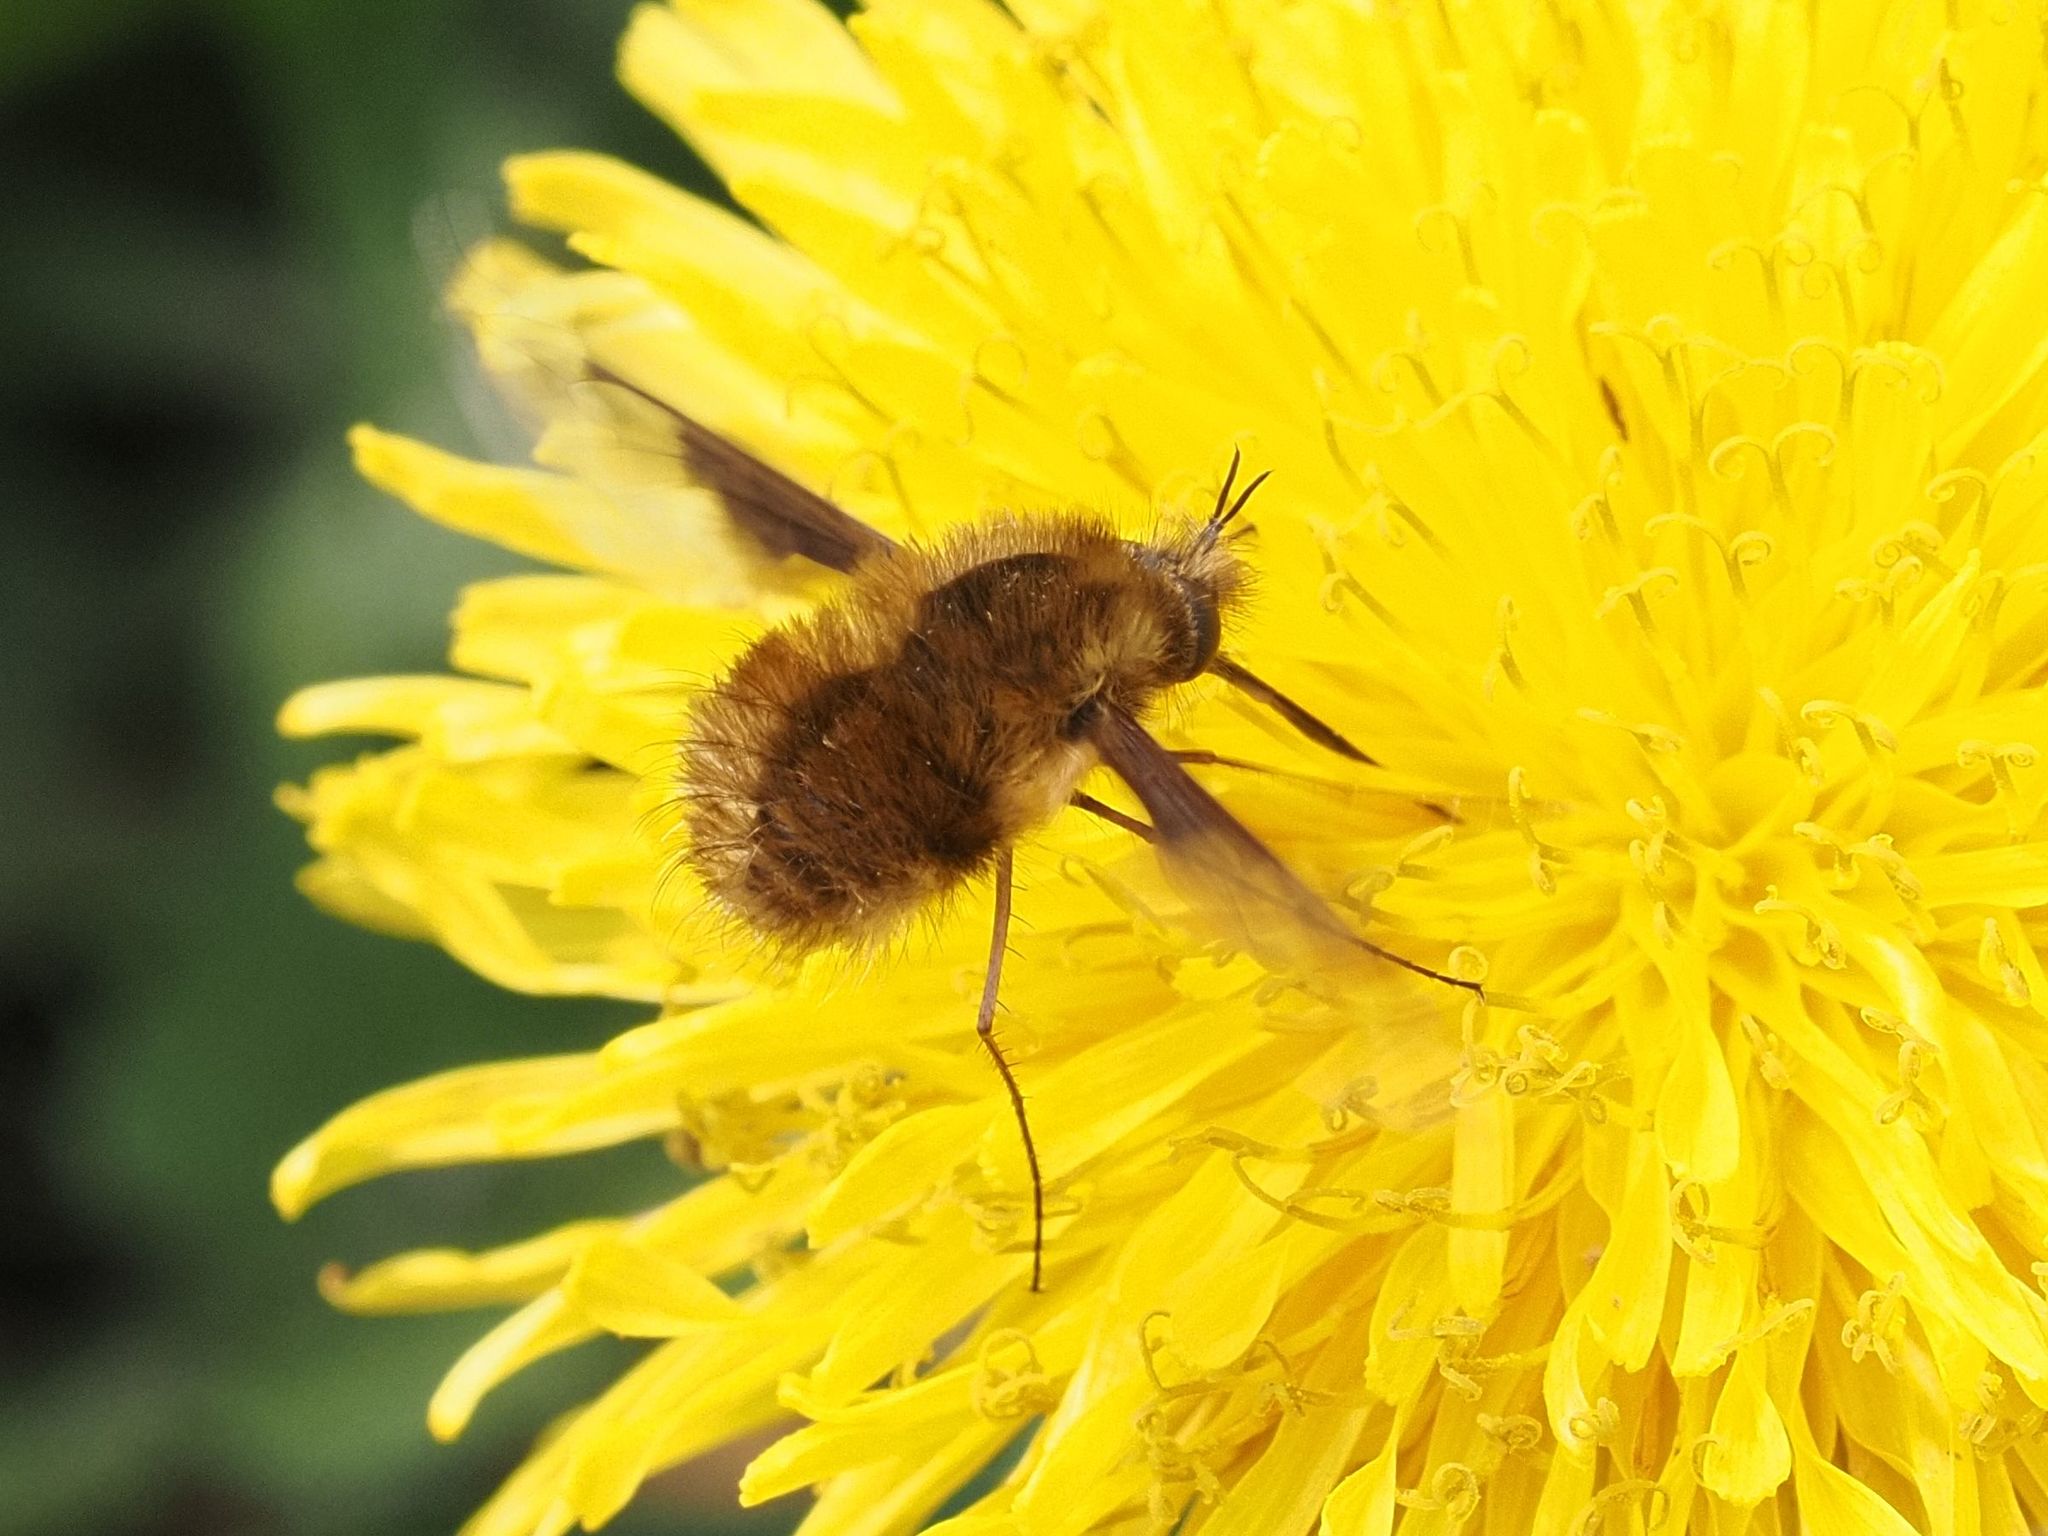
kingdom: Animalia
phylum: Arthropoda
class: Insecta
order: Diptera
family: Bombyliidae
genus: Bombylius
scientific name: Bombylius major
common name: Bee fly
